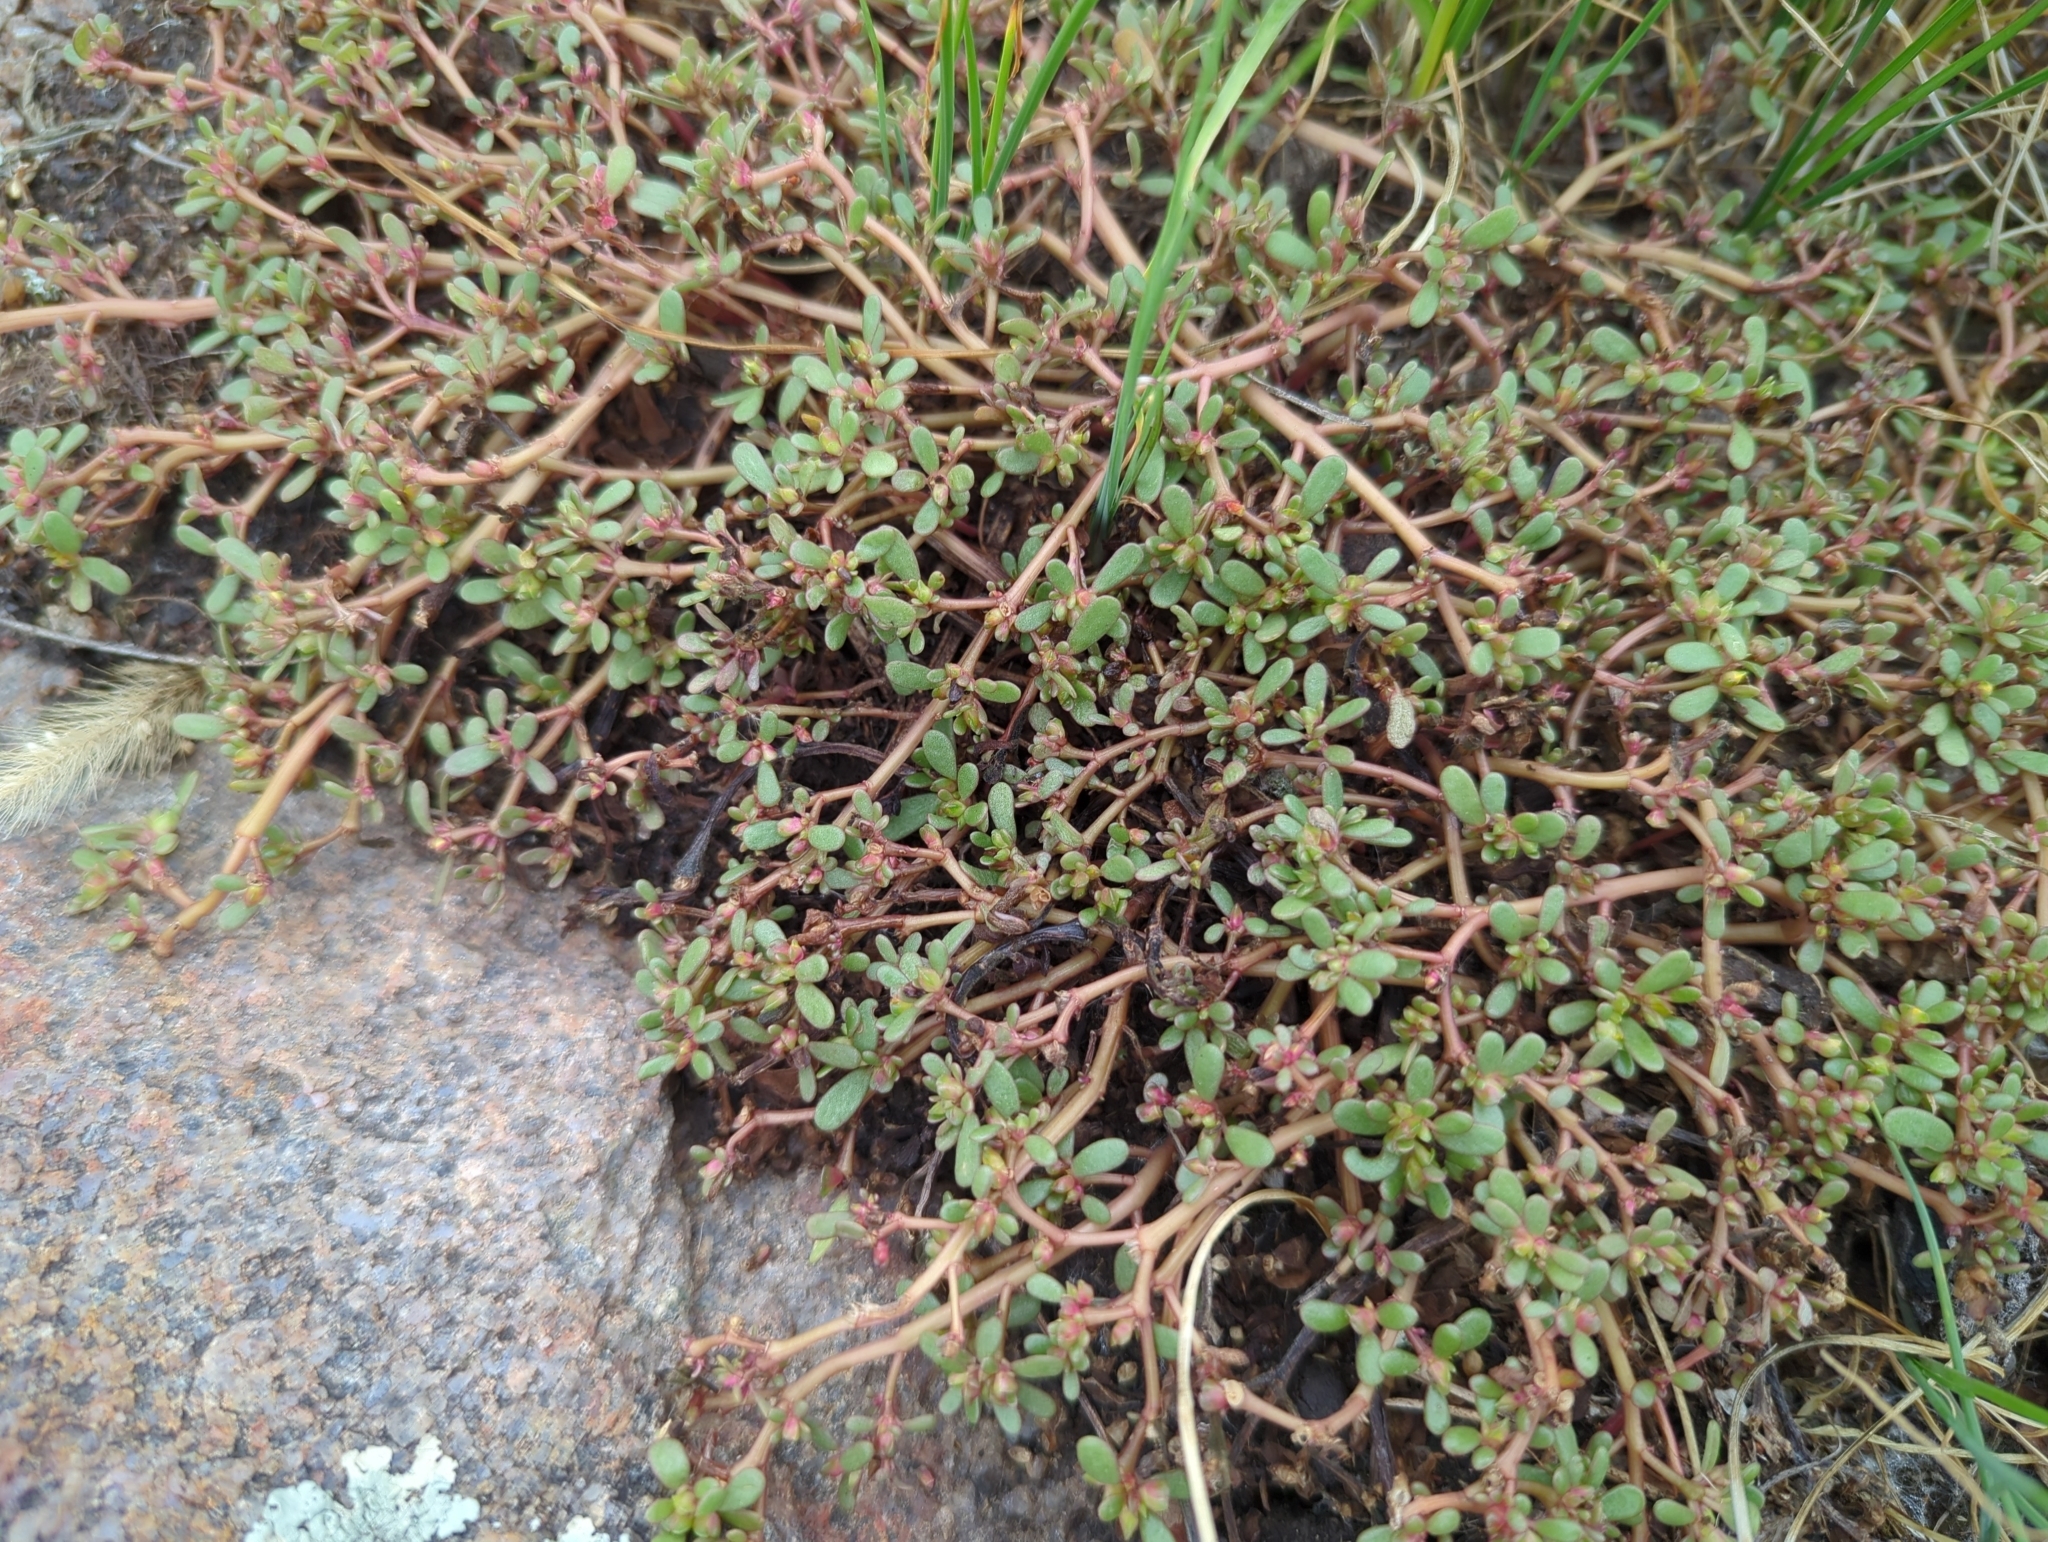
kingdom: Plantae
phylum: Tracheophyta
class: Magnoliopsida
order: Caryophyllales
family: Portulacaceae
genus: Portulaca
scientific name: Portulaca oleracea
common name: Common purslane
